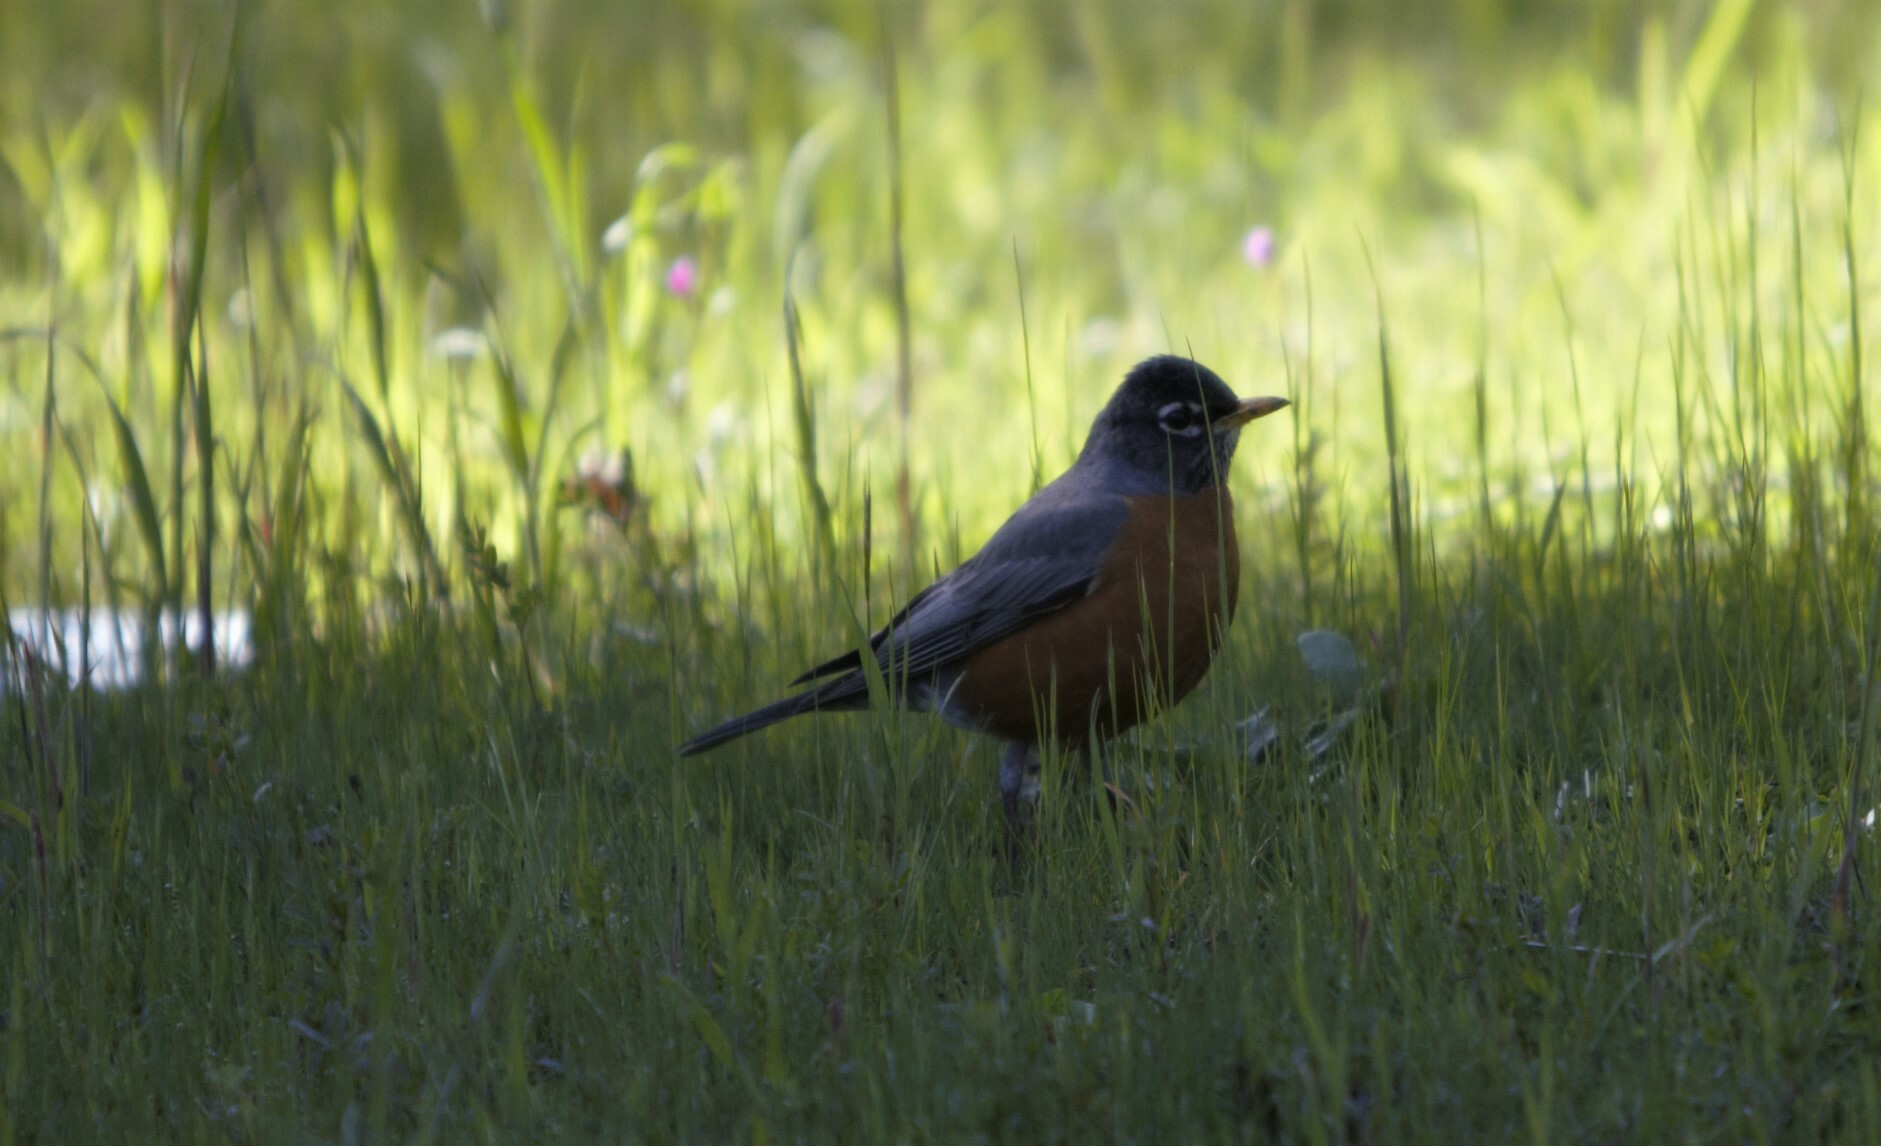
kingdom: Animalia
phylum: Chordata
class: Aves
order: Passeriformes
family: Turdidae
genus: Turdus
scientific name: Turdus migratorius
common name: American robin
